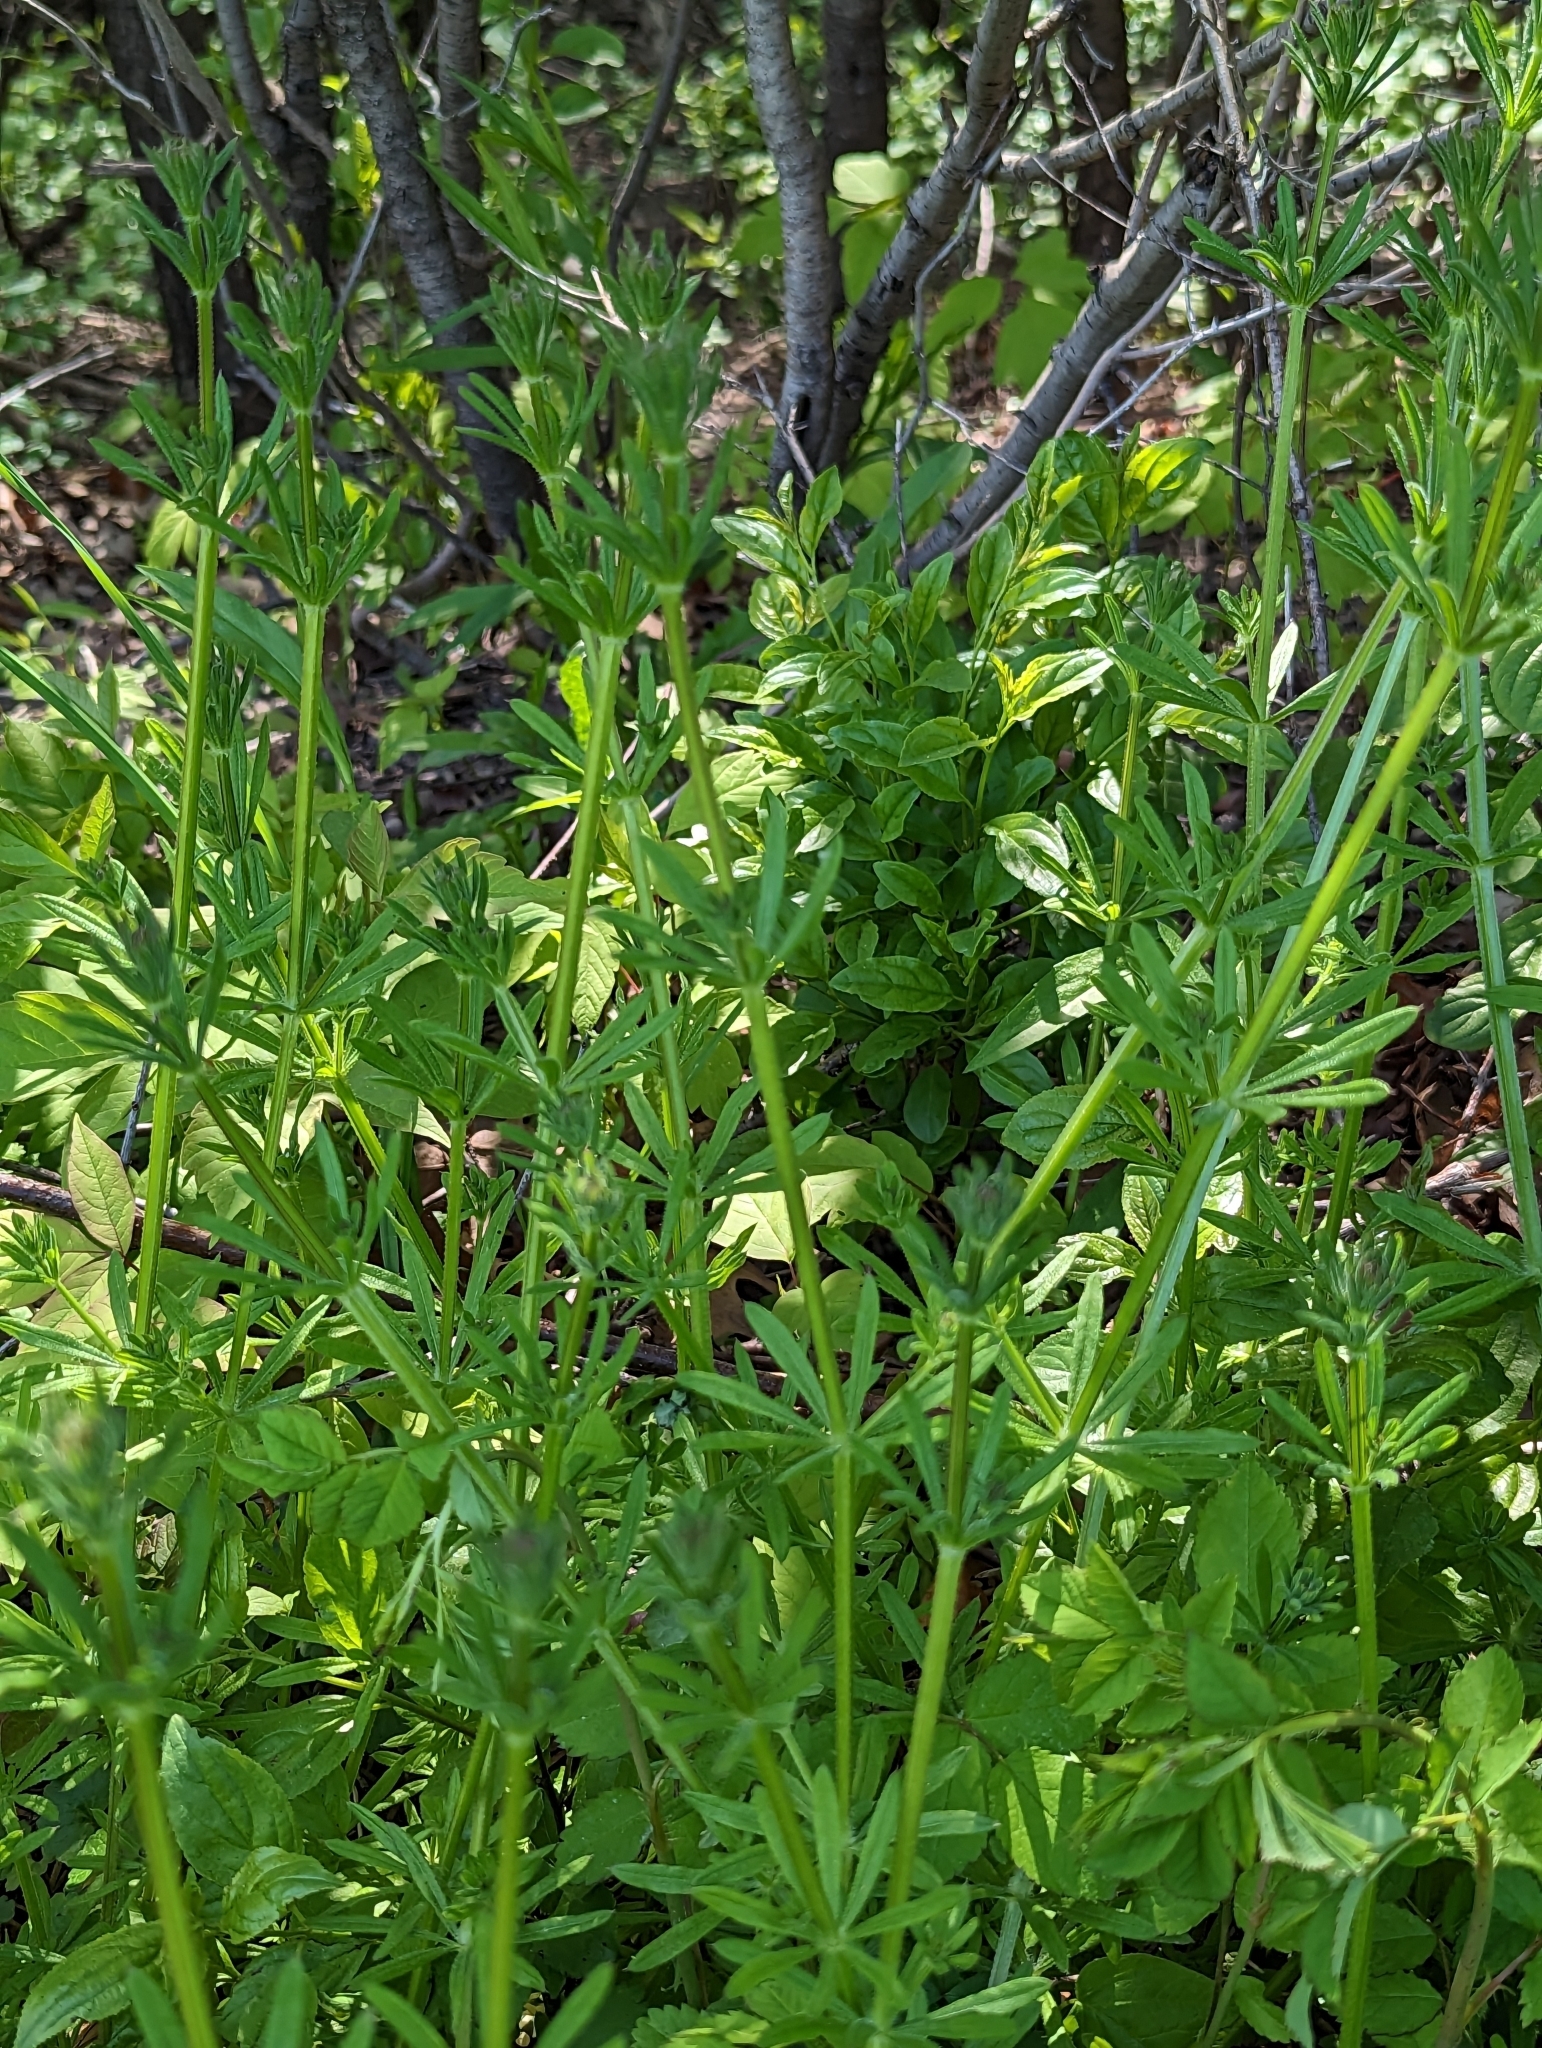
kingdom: Plantae
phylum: Tracheophyta
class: Magnoliopsida
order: Gentianales
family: Rubiaceae
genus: Galium
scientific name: Galium aparine
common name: Cleavers
